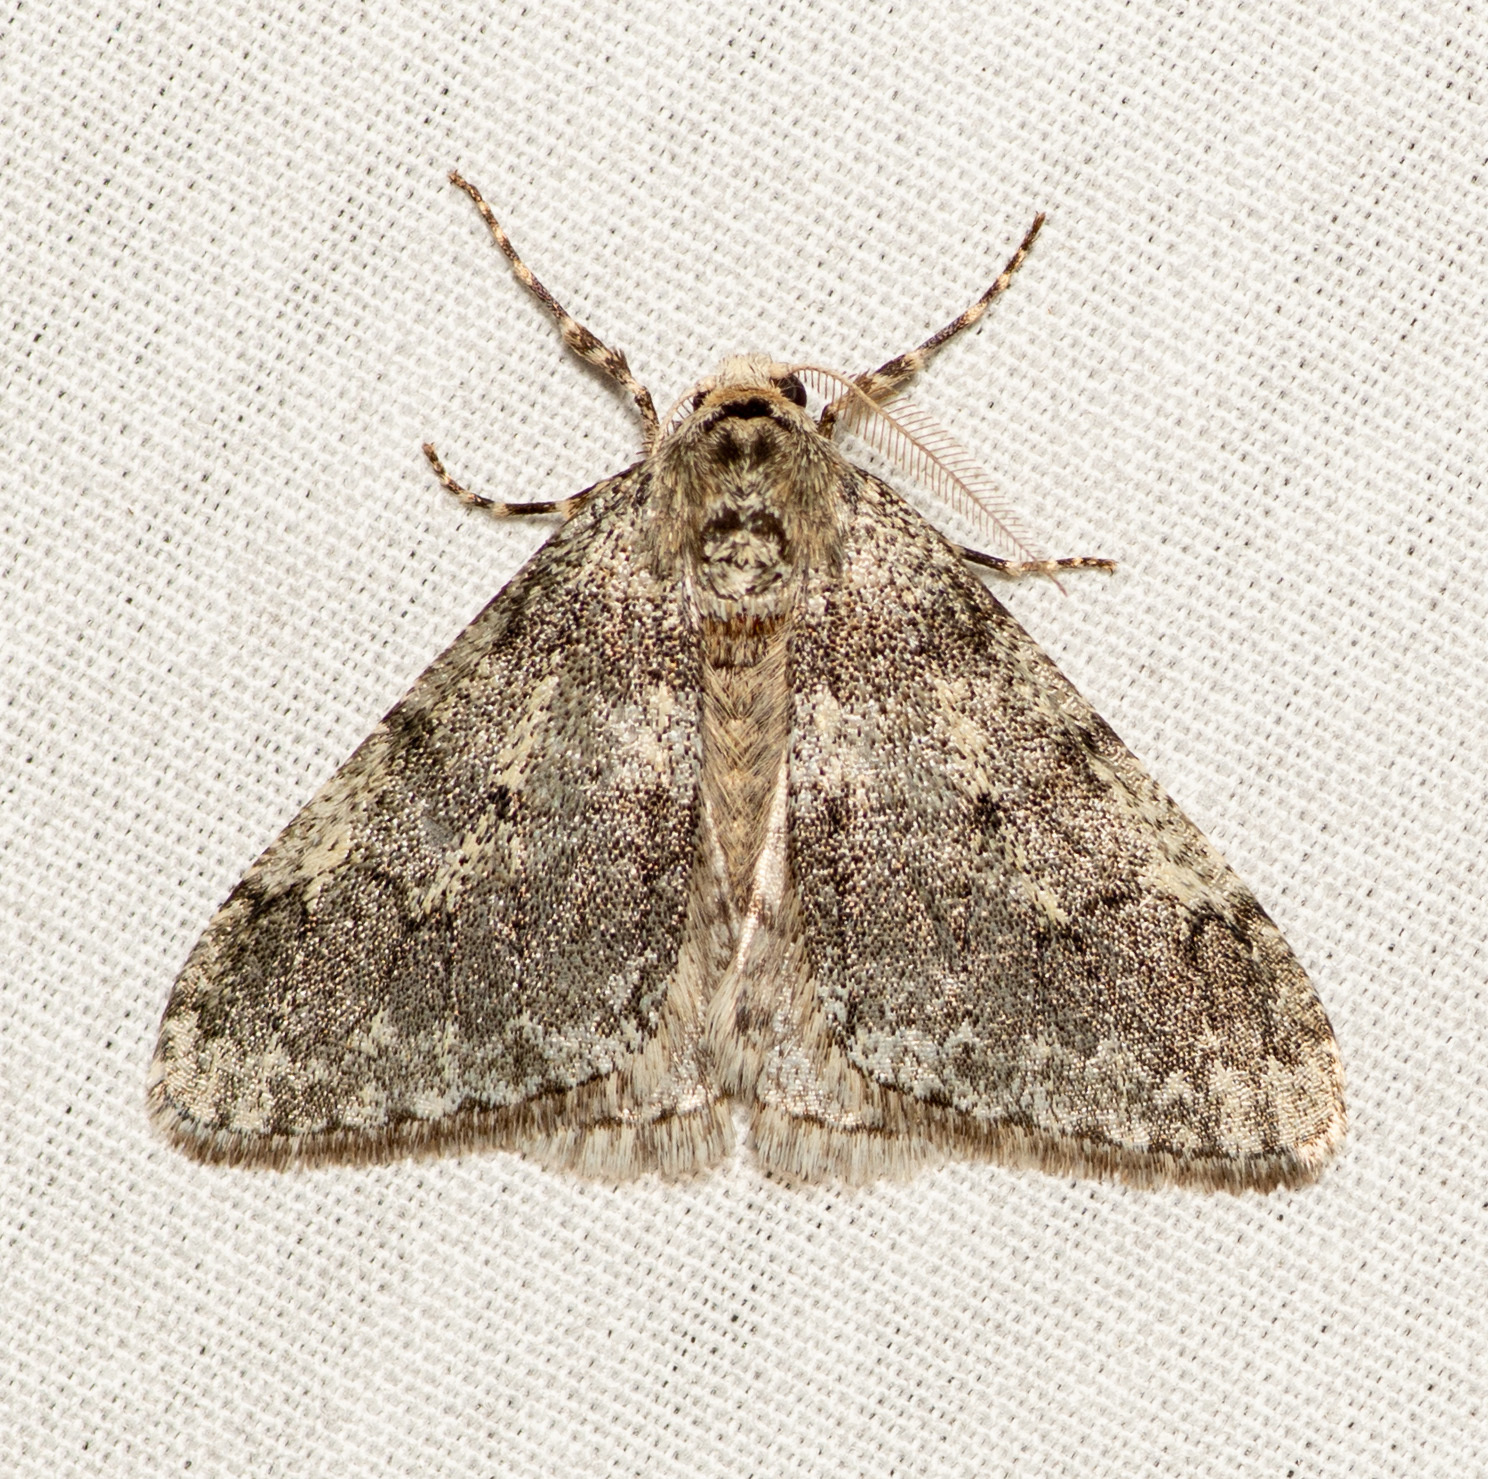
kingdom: Animalia
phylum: Arthropoda
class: Insecta
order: Lepidoptera
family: Geometridae
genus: Phigalia
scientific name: Phigalia strigataria
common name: Small phigalia
